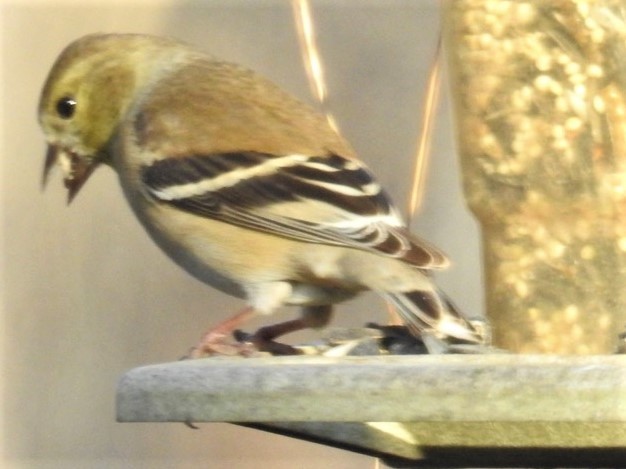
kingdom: Animalia
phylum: Chordata
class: Aves
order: Passeriformes
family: Fringillidae
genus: Spinus
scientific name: Spinus tristis
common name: American goldfinch
